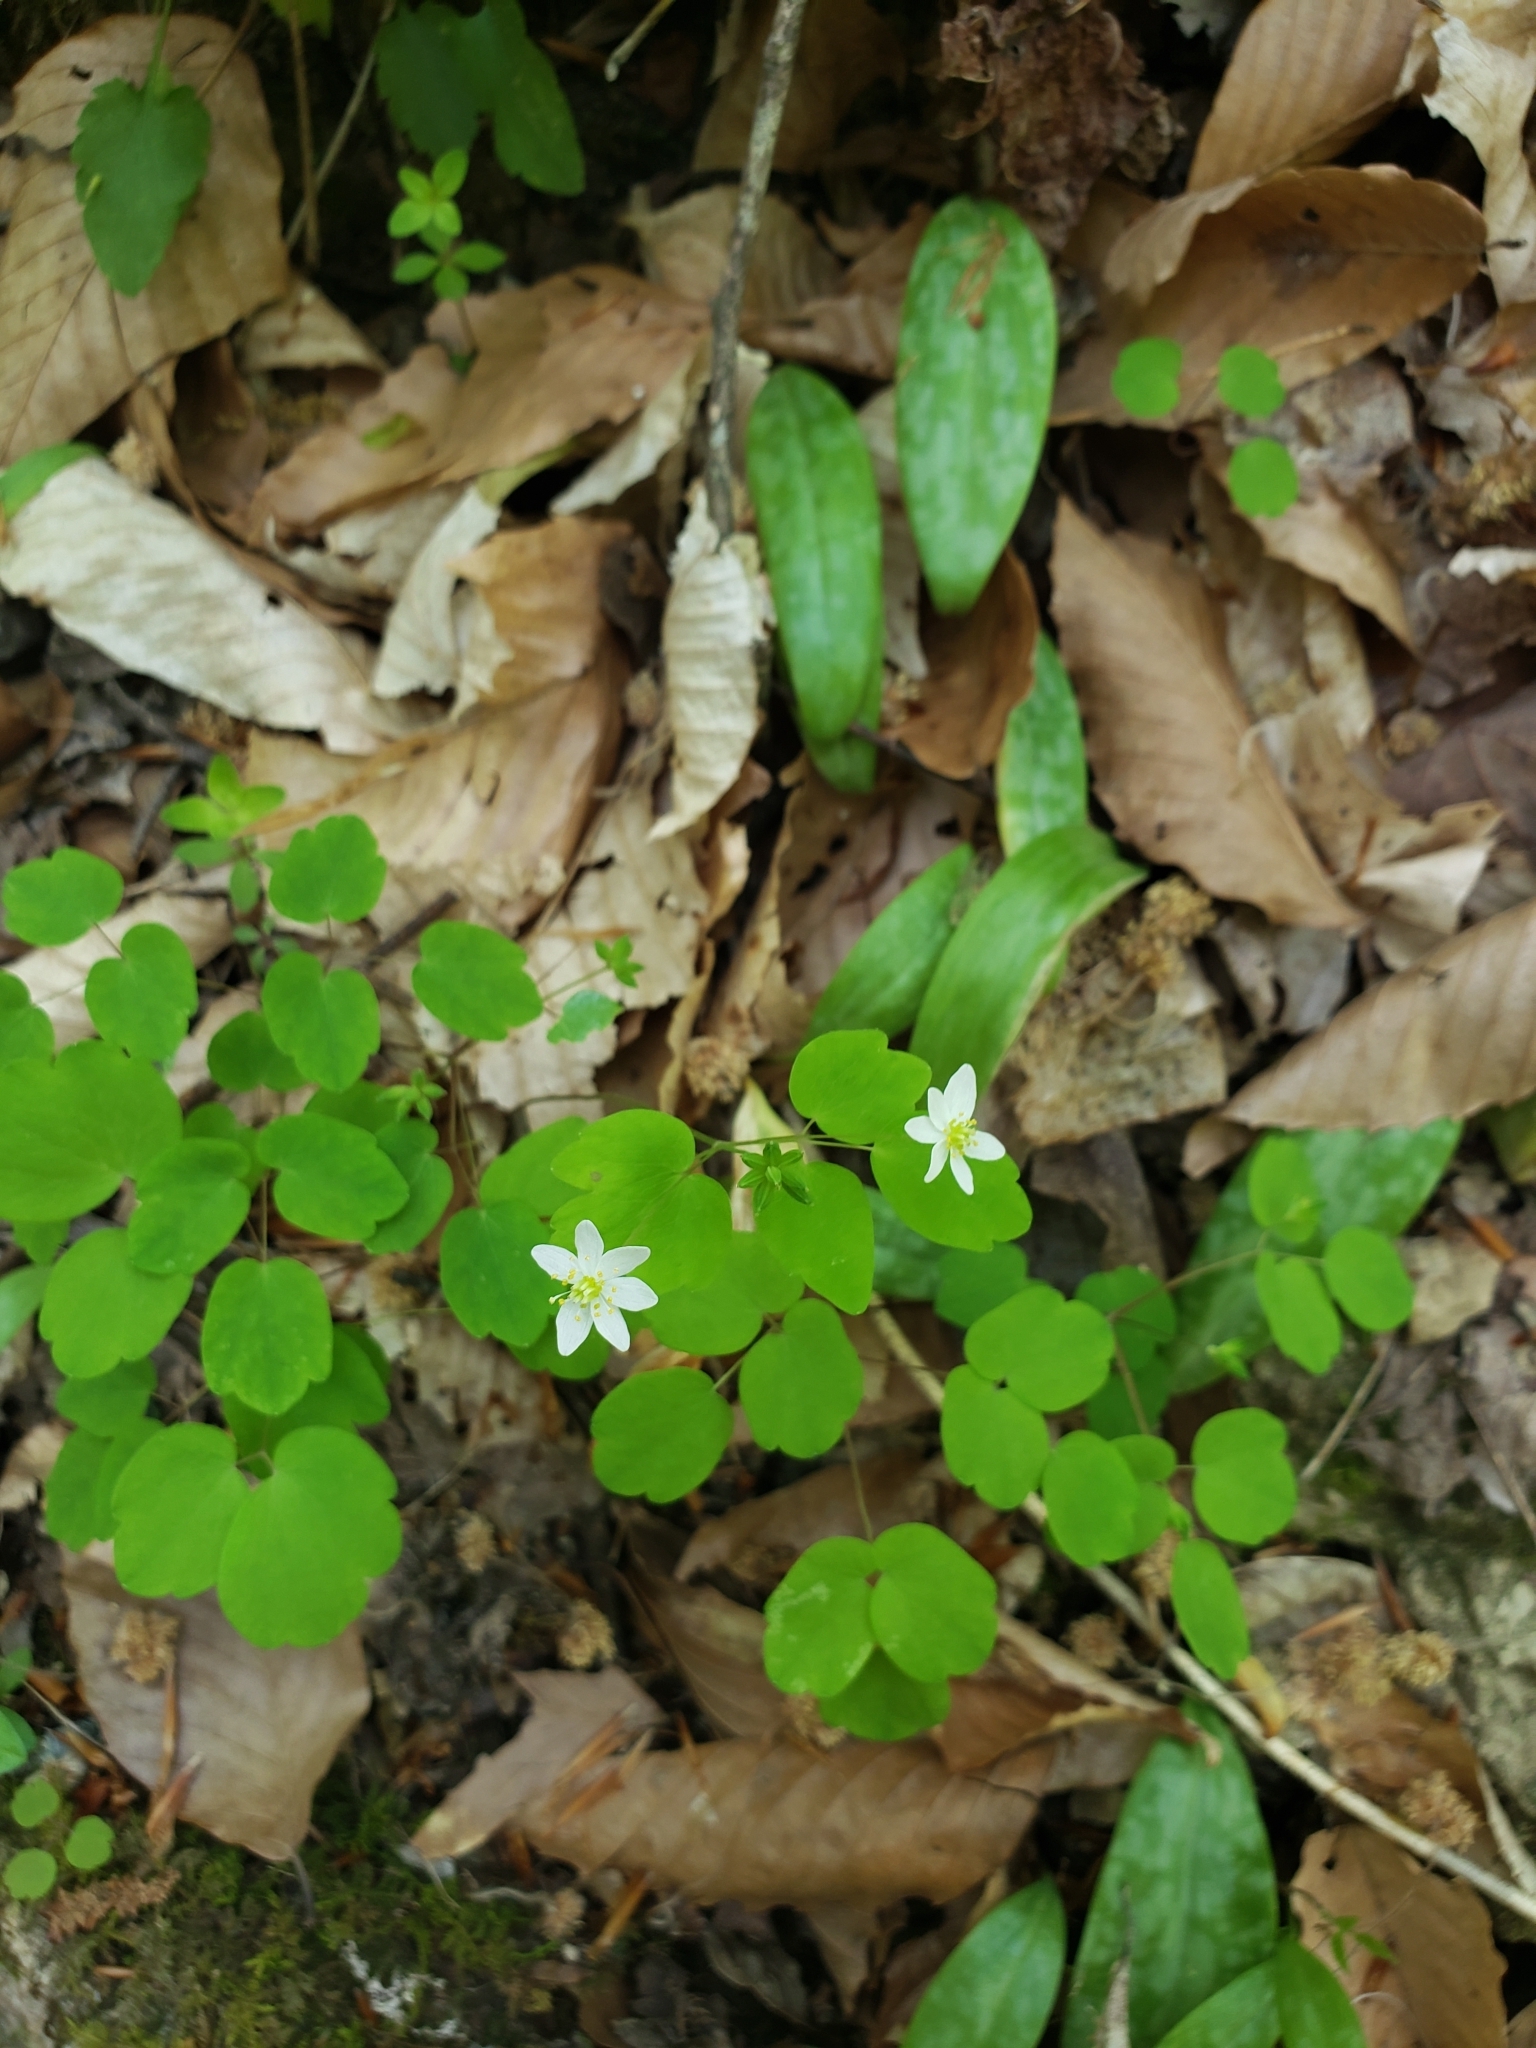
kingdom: Plantae
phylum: Tracheophyta
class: Magnoliopsida
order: Ranunculales
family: Ranunculaceae
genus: Thalictrum
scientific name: Thalictrum thalictroides
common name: Rue-anemone
